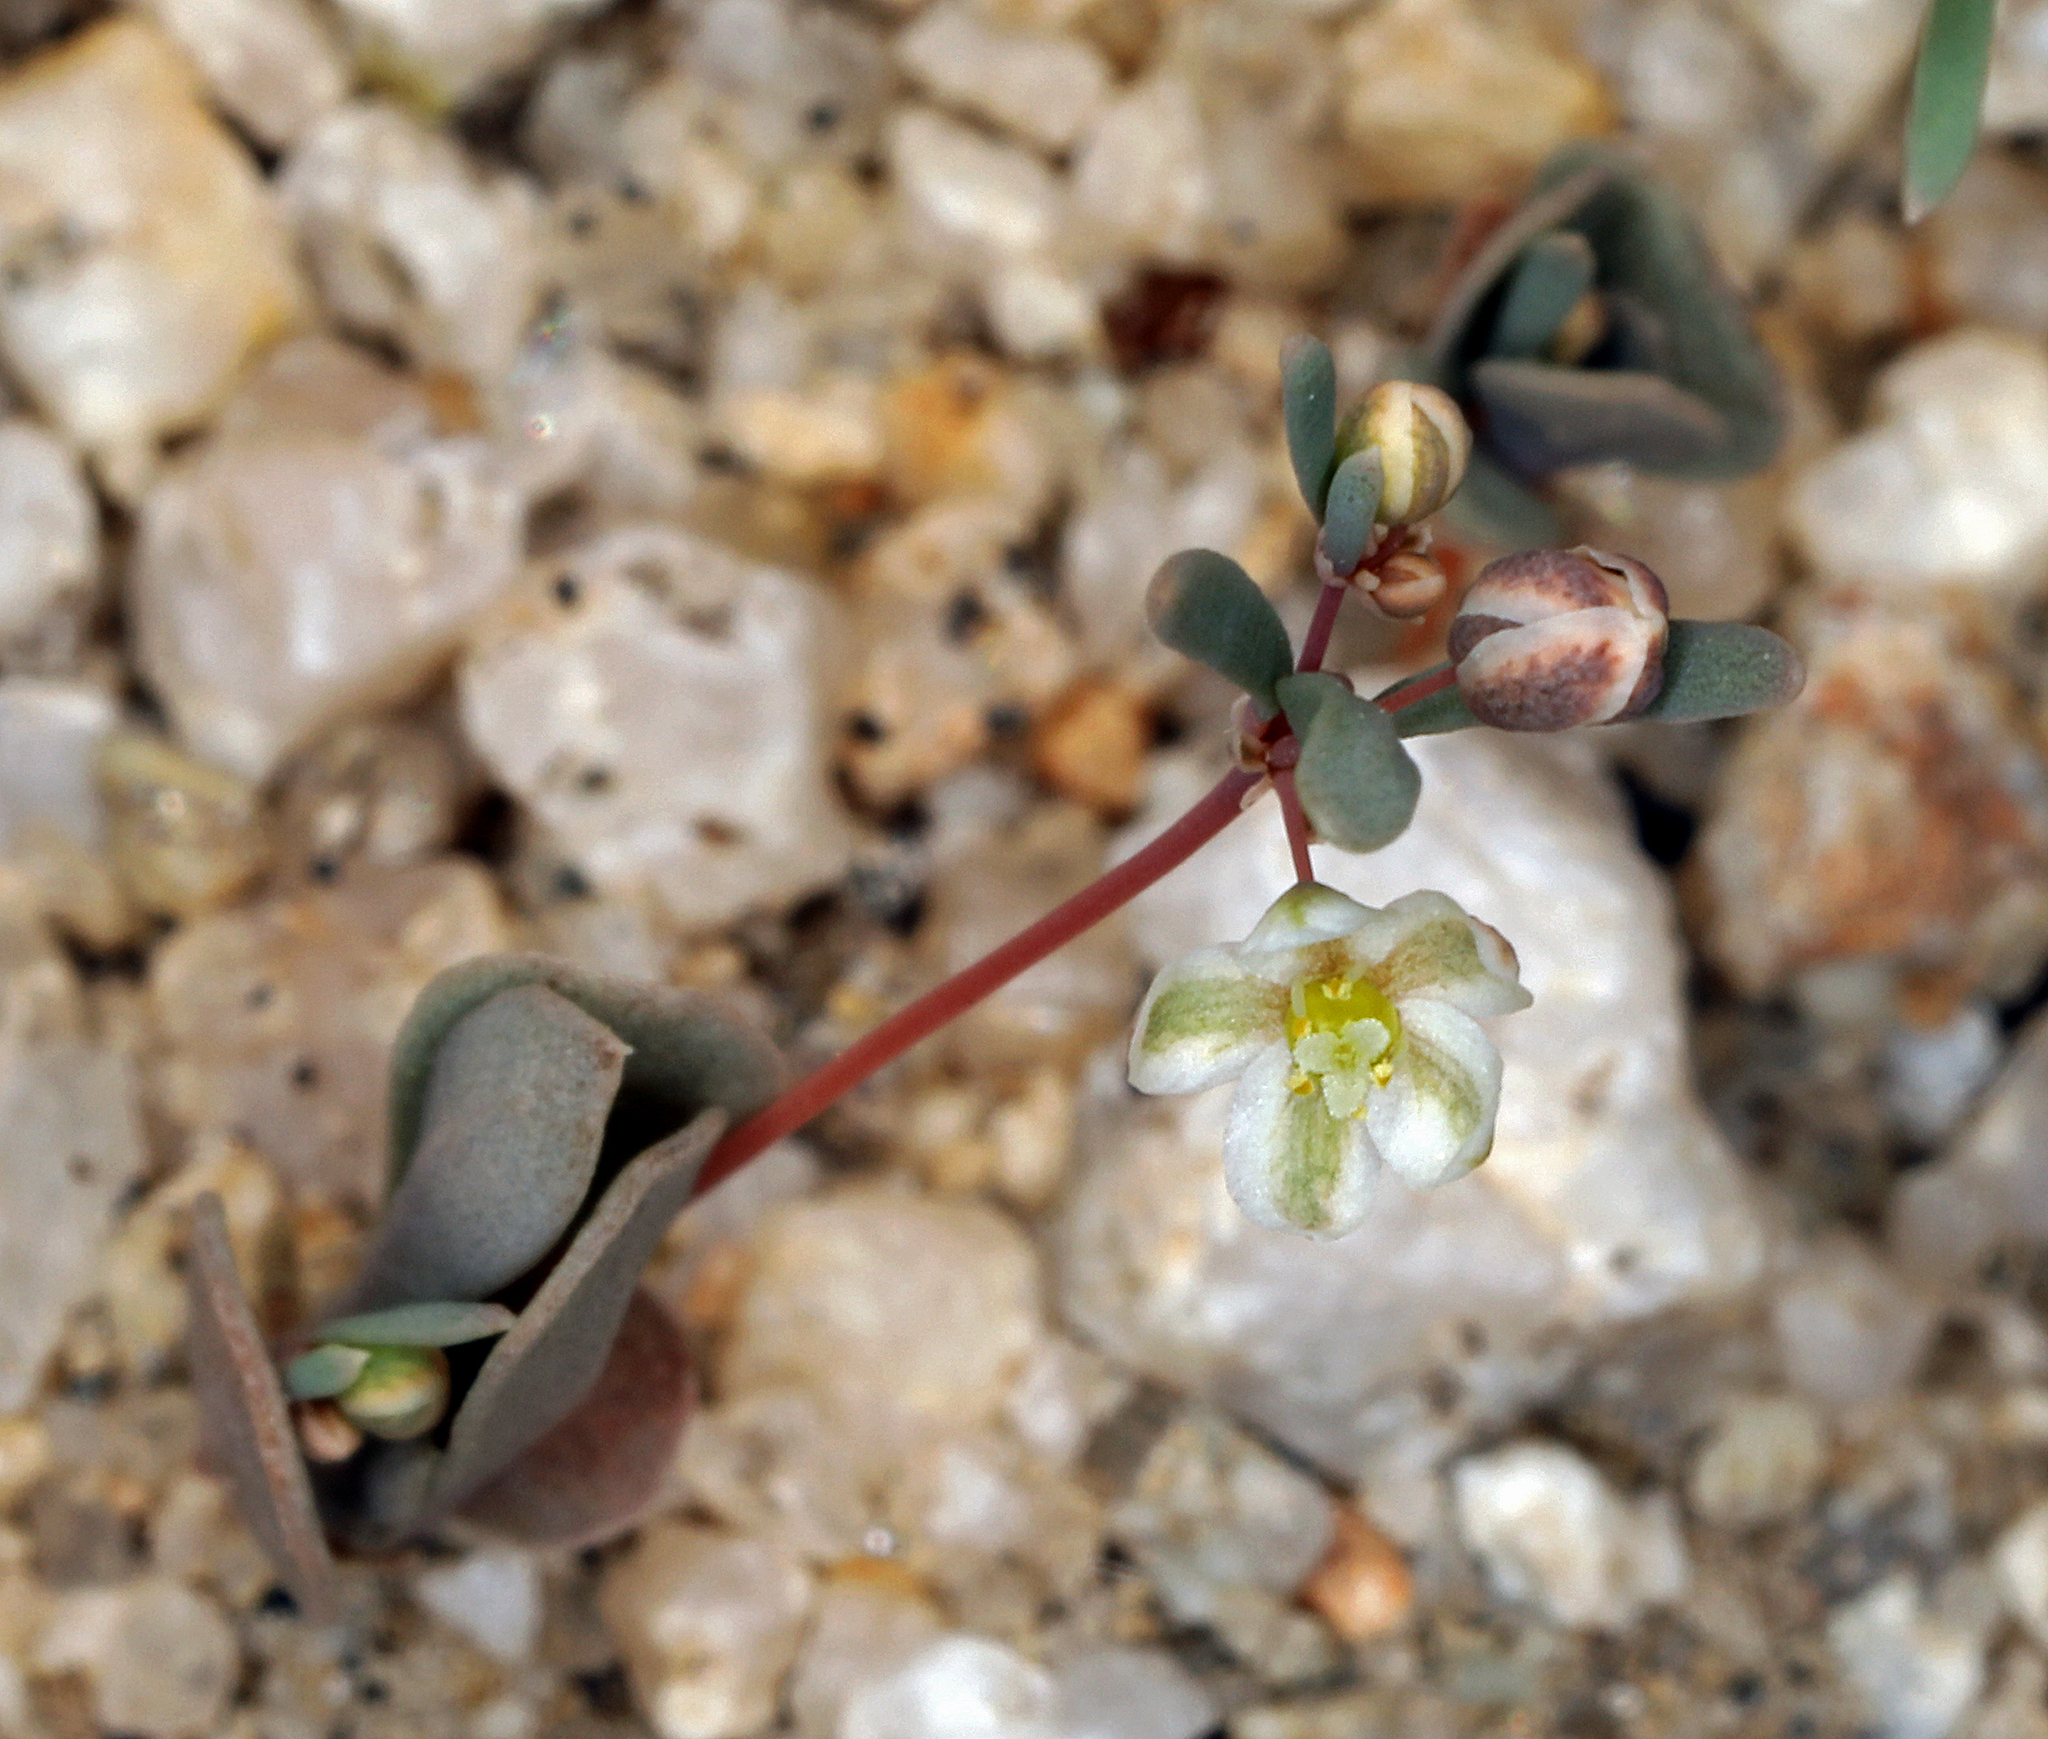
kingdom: Plantae
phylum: Tracheophyta
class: Magnoliopsida
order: Caryophyllales
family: Molluginaceae
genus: Hypertelis
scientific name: Hypertelis umbellata
